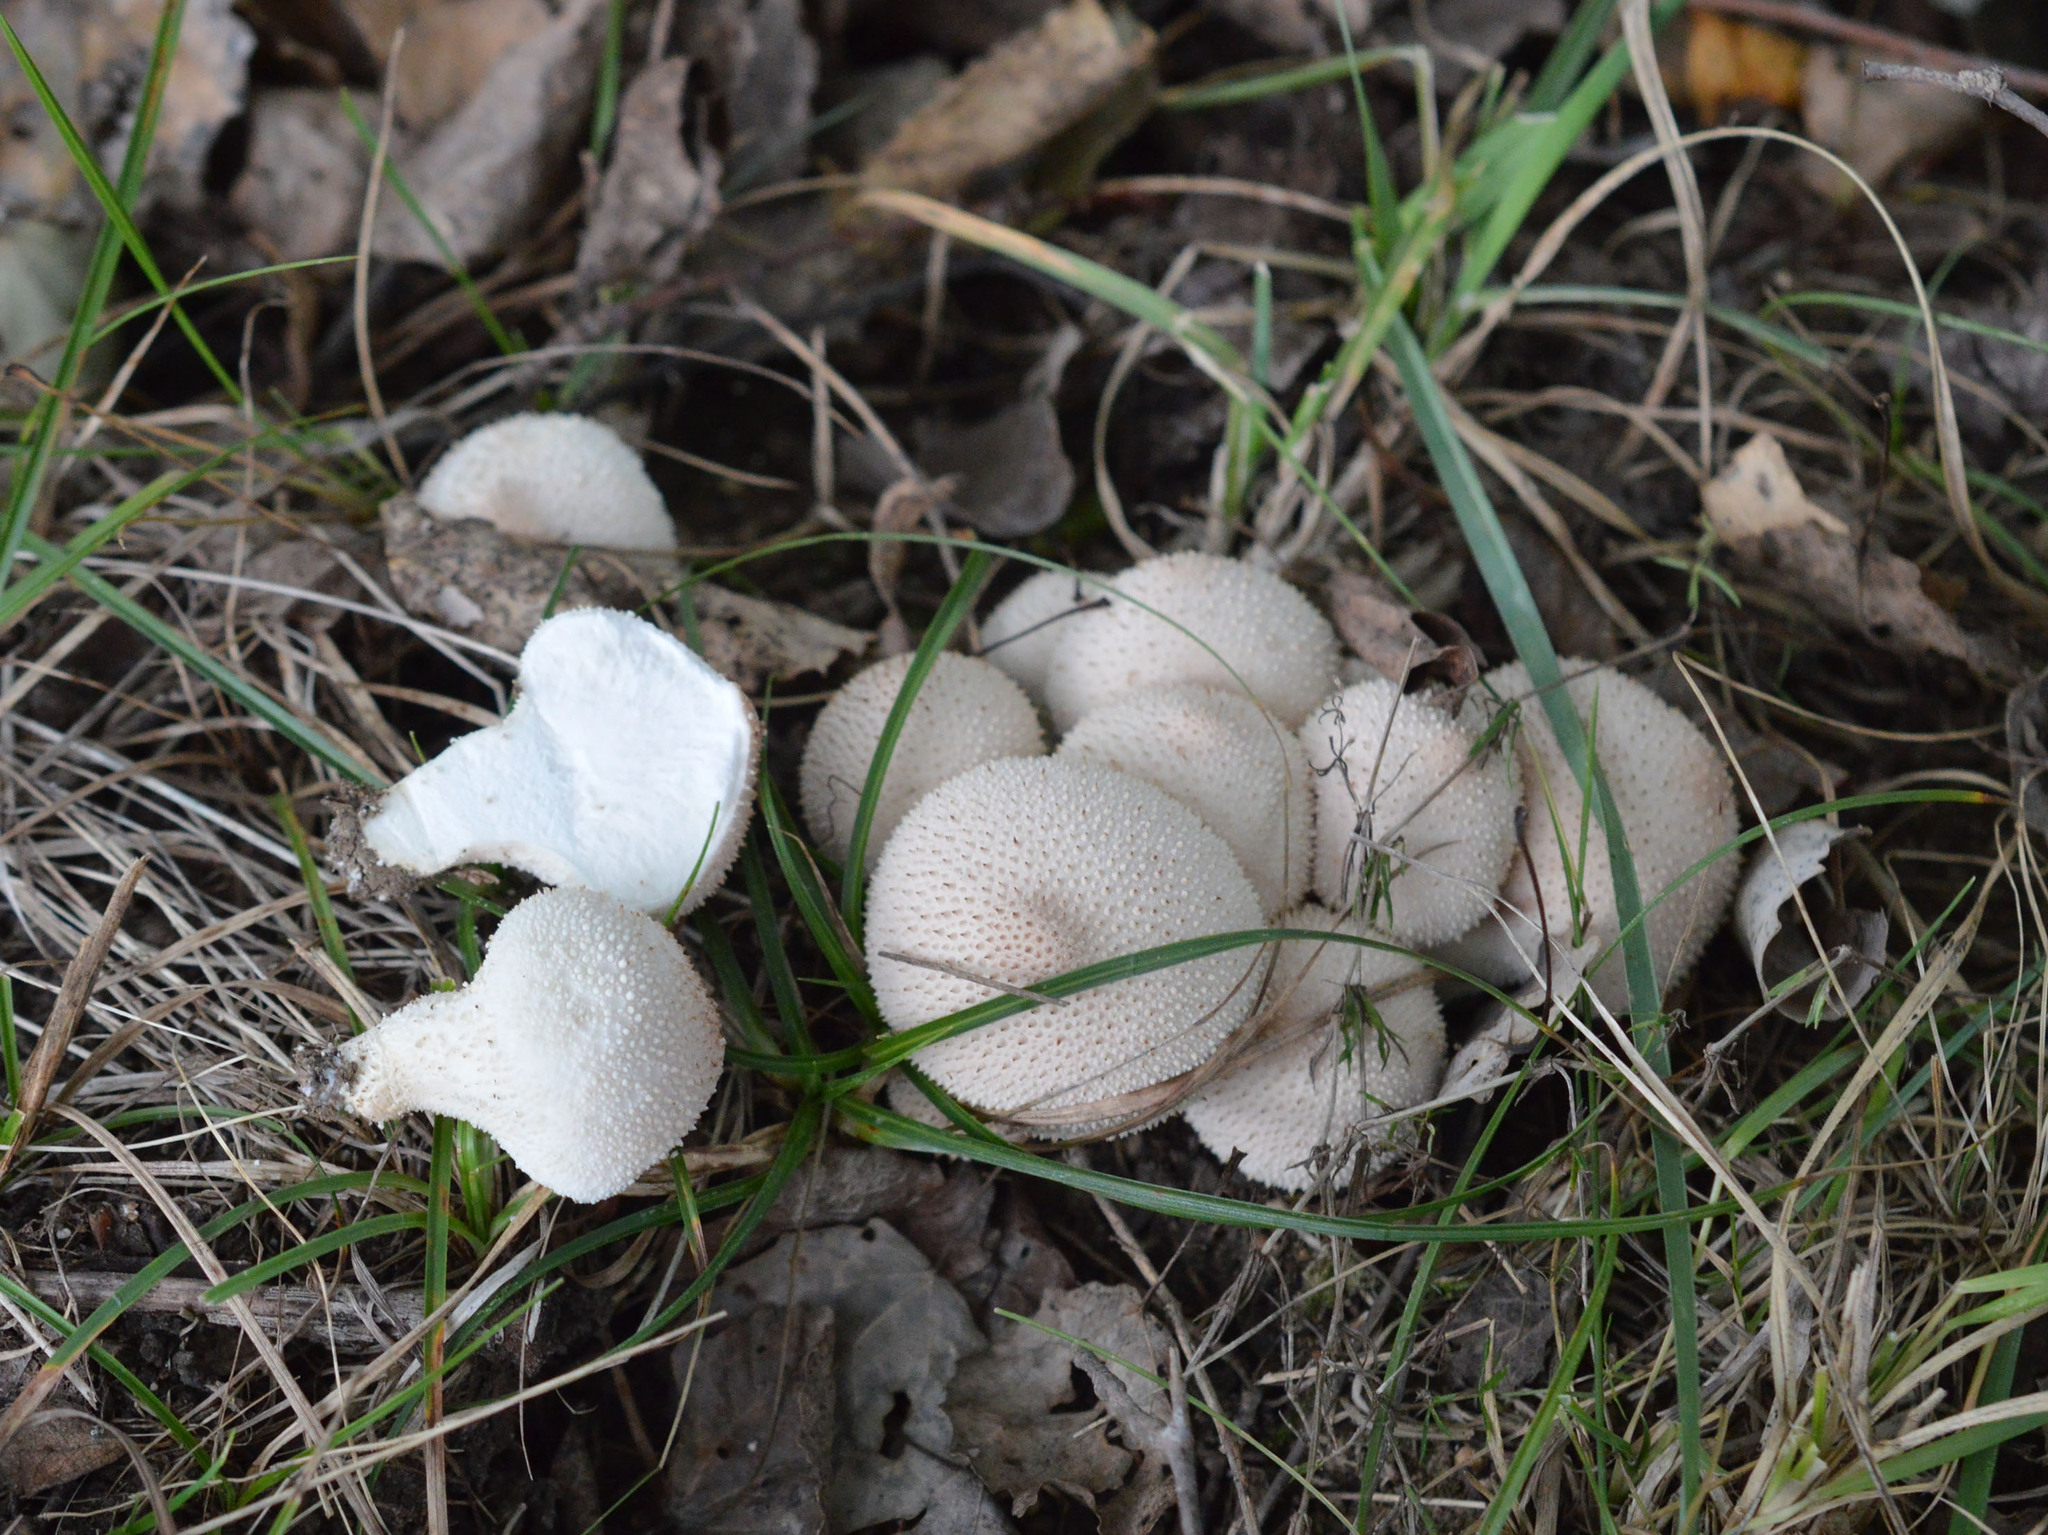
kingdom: Fungi
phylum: Basidiomycota
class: Agaricomycetes
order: Agaricales
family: Lycoperdaceae
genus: Lycoperdon
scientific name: Lycoperdon perlatum
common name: Common puffball
